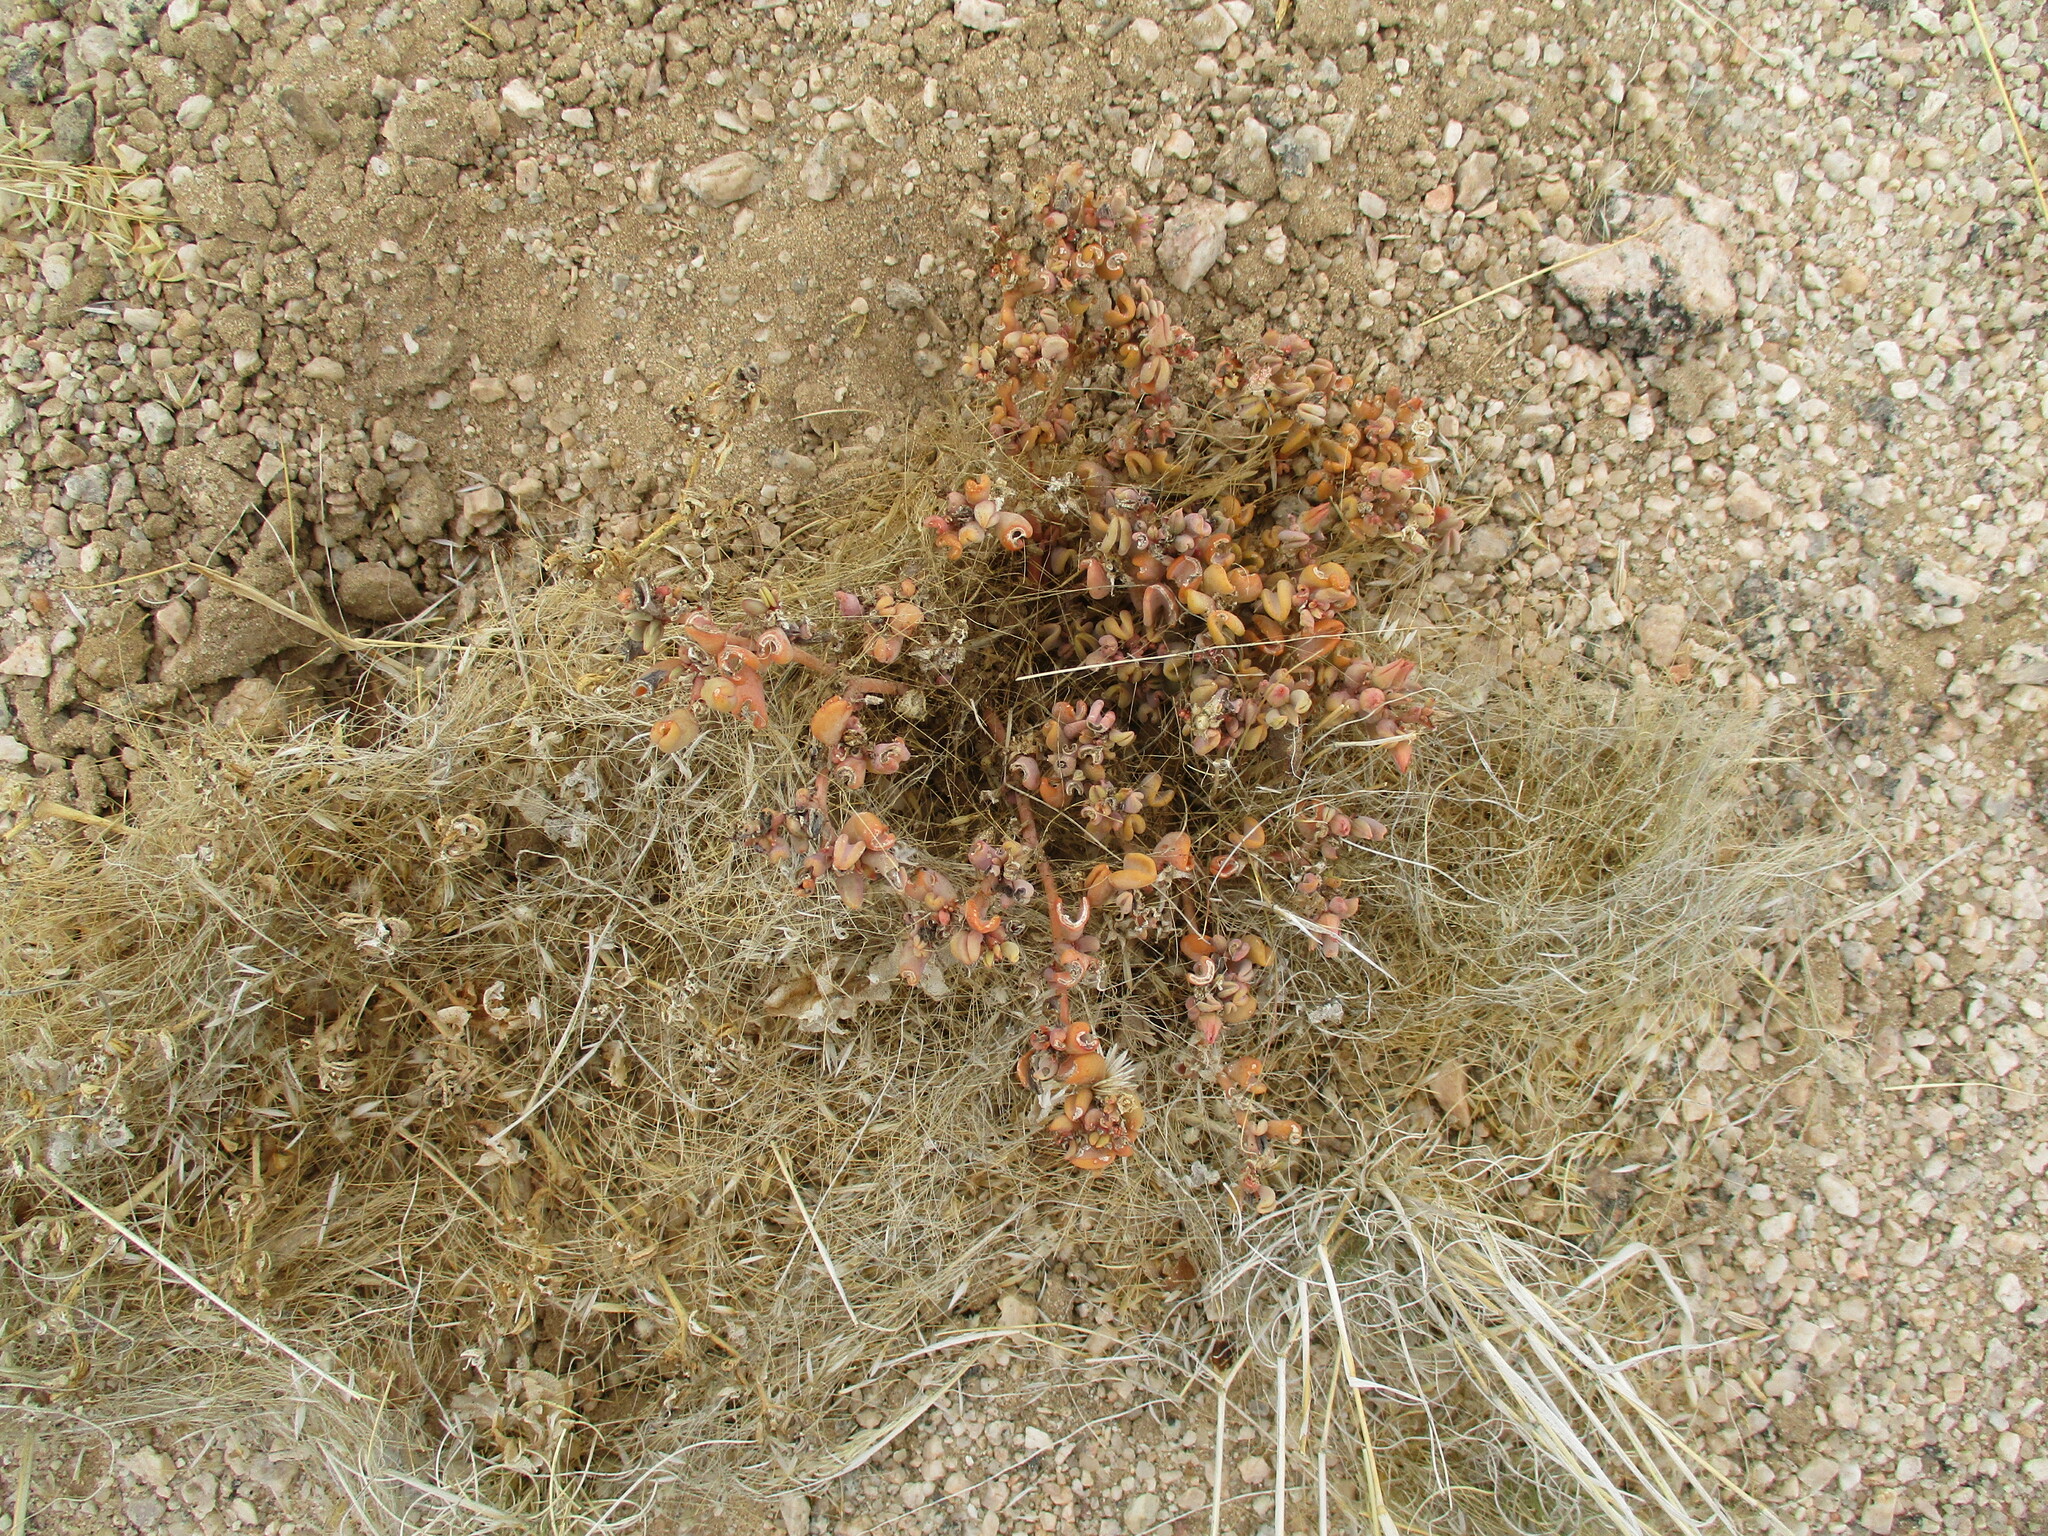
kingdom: Plantae
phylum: Tracheophyta
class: Magnoliopsida
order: Caryophyllales
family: Aizoaceae
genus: Sesuvium
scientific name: Sesuvium sesuvioides
